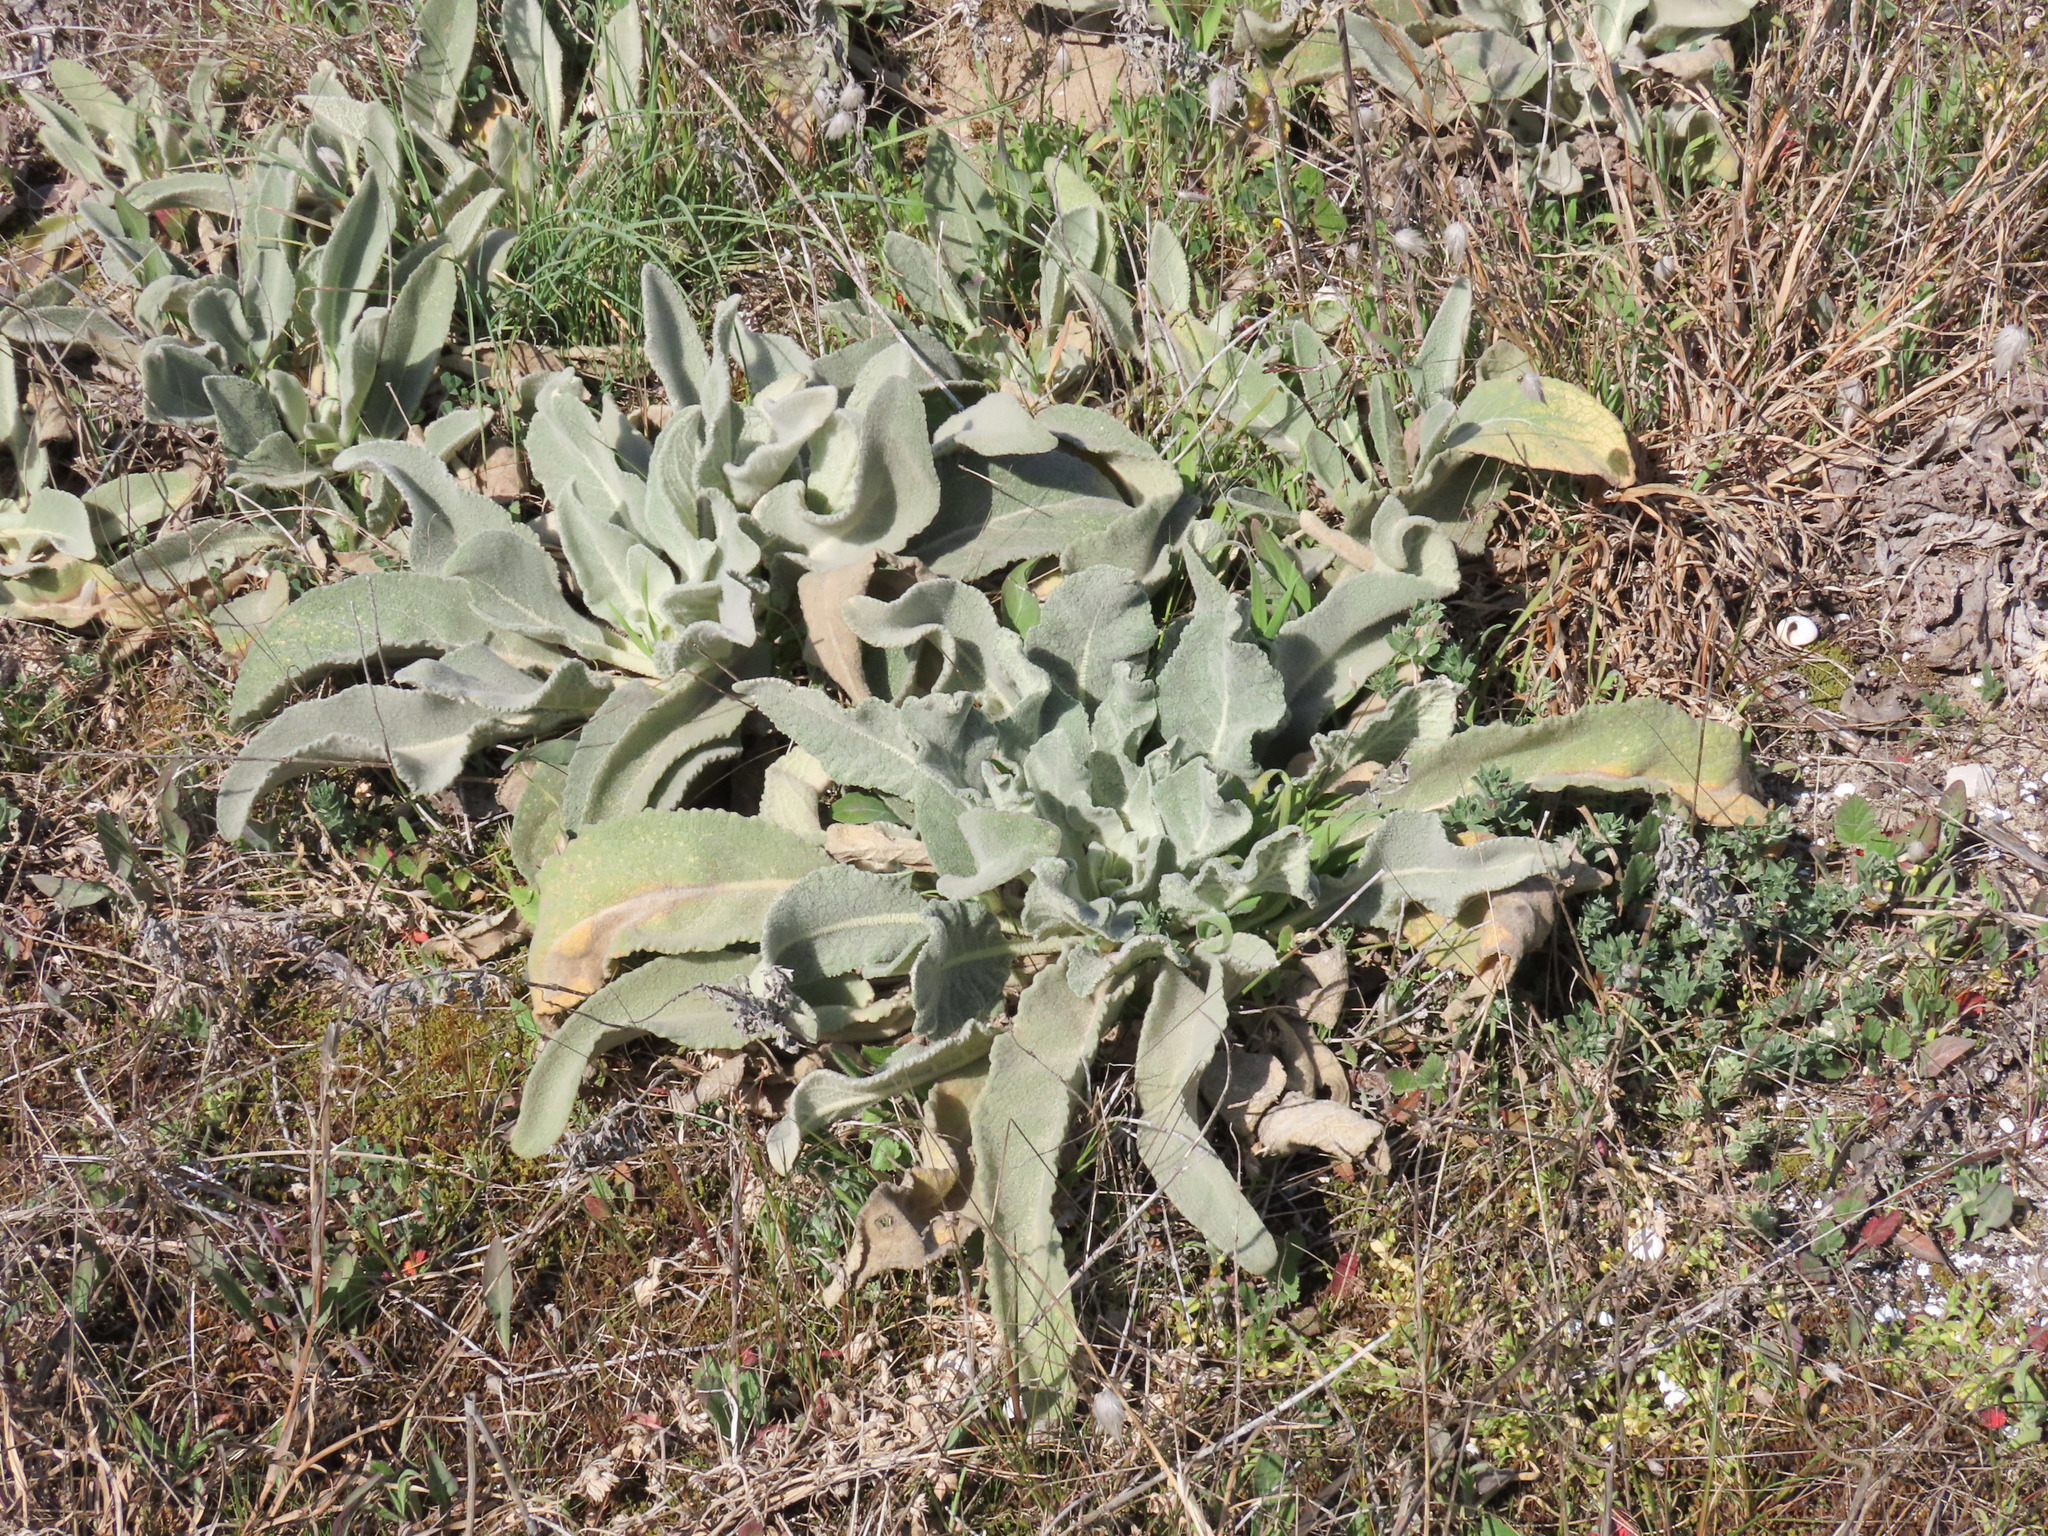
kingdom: Plantae
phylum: Tracheophyta
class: Magnoliopsida
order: Lamiales
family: Scrophulariaceae
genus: Verbascum
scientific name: Verbascum niveum
